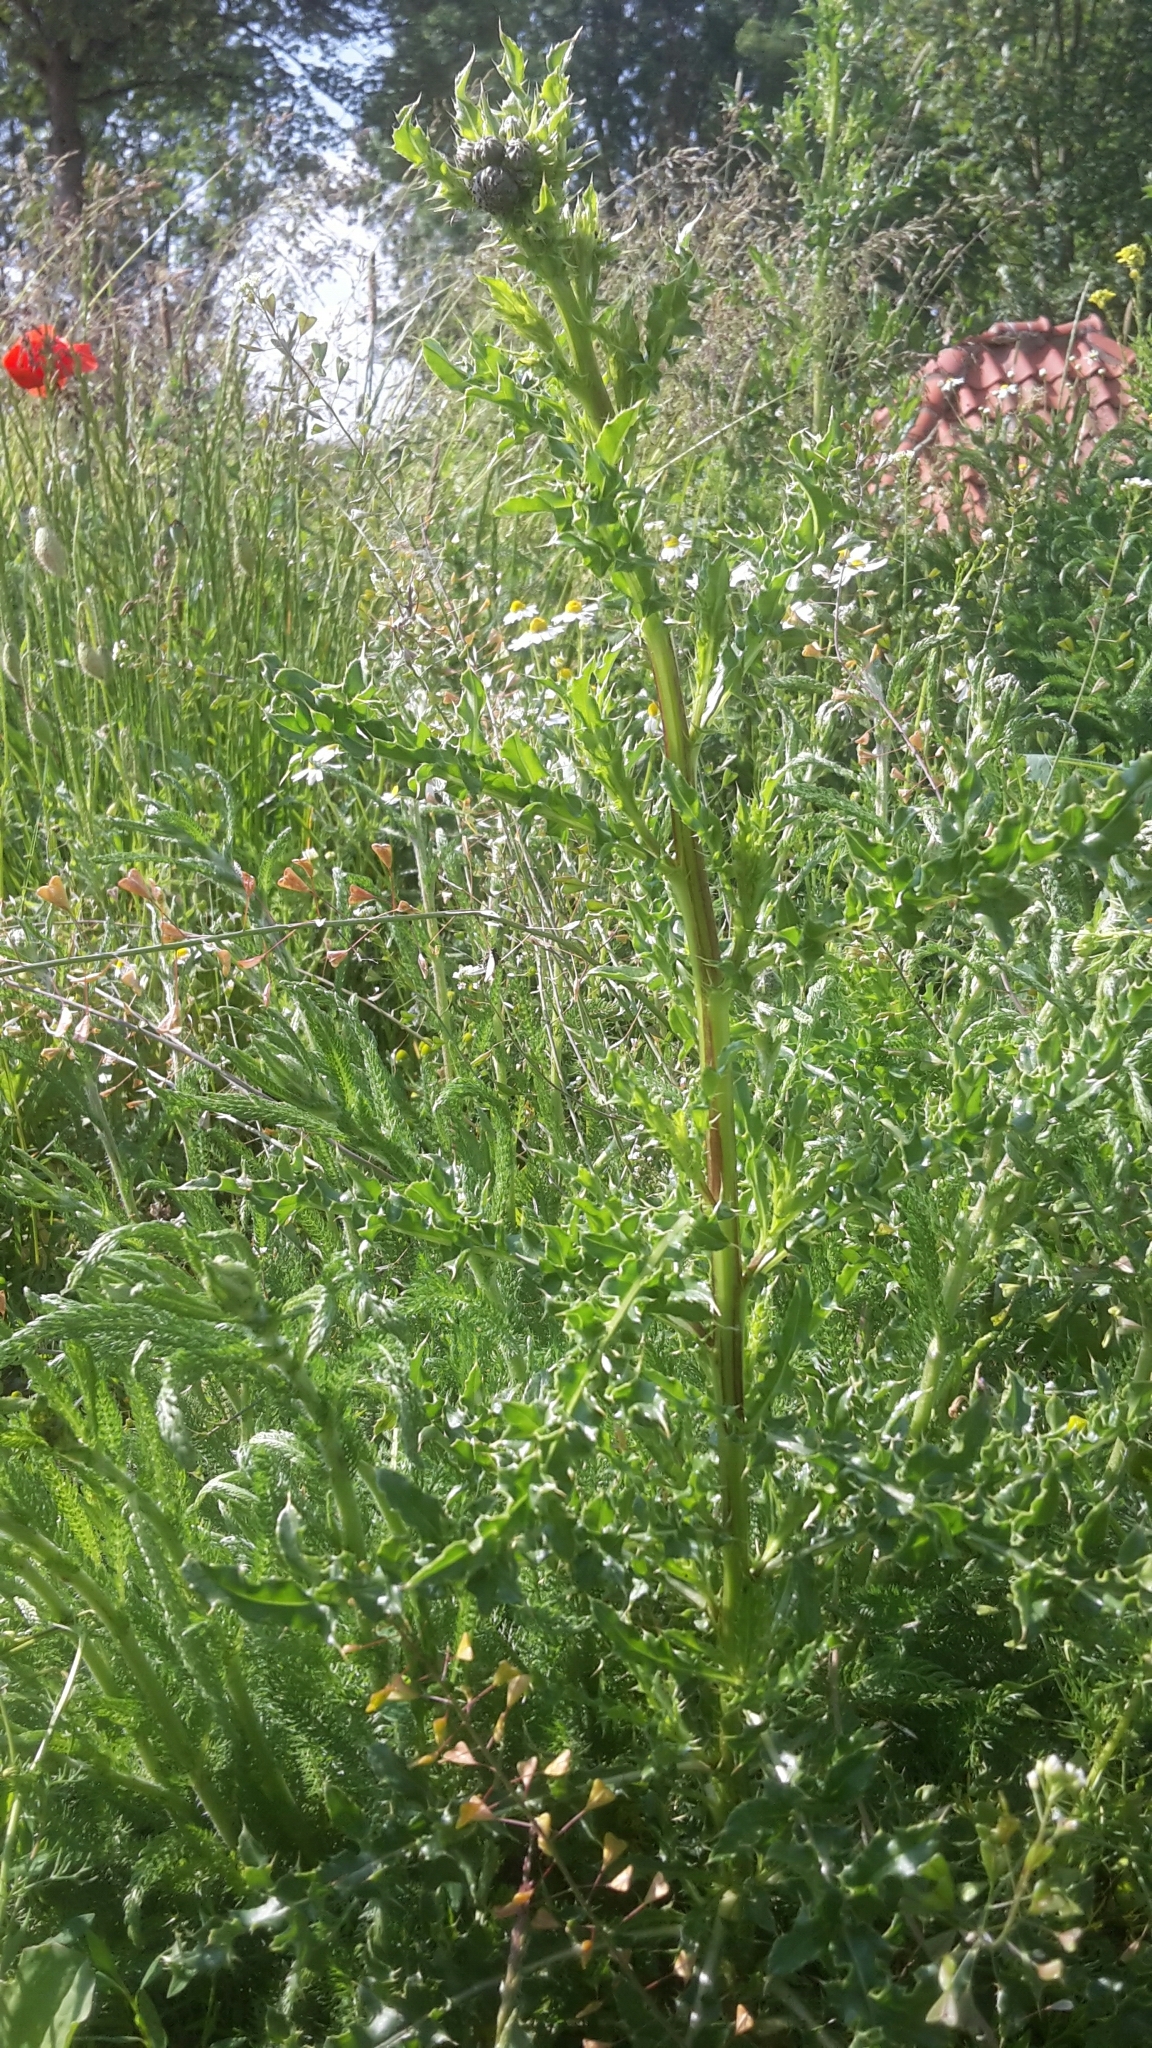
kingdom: Plantae
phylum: Tracheophyta
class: Magnoliopsida
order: Asterales
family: Asteraceae
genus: Cirsium
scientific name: Cirsium arvense
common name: Creeping thistle
